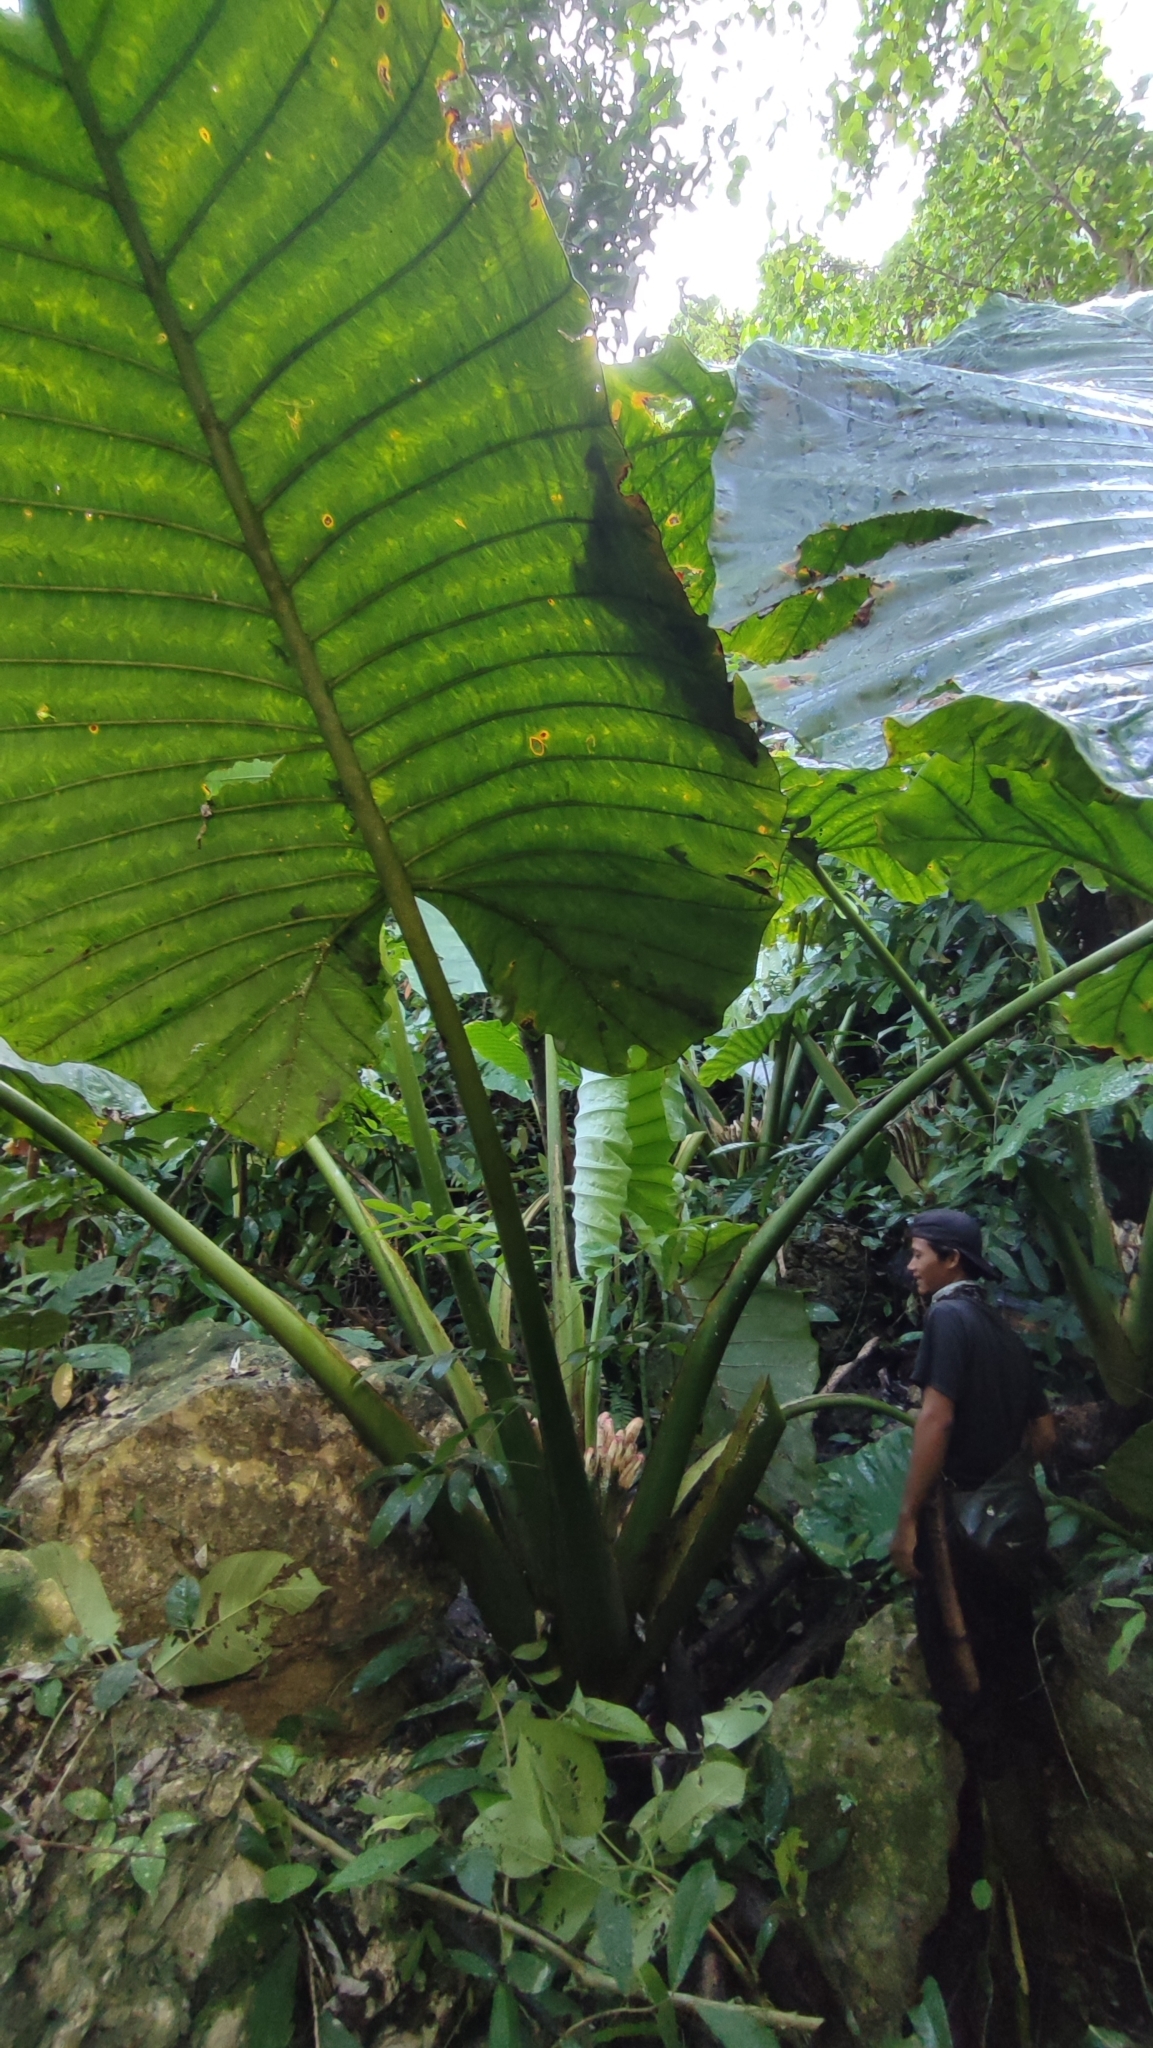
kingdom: Plantae
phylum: Tracheophyta
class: Liliopsida
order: Alismatales
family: Araceae
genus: Alocasia
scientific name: Alocasia robusta
